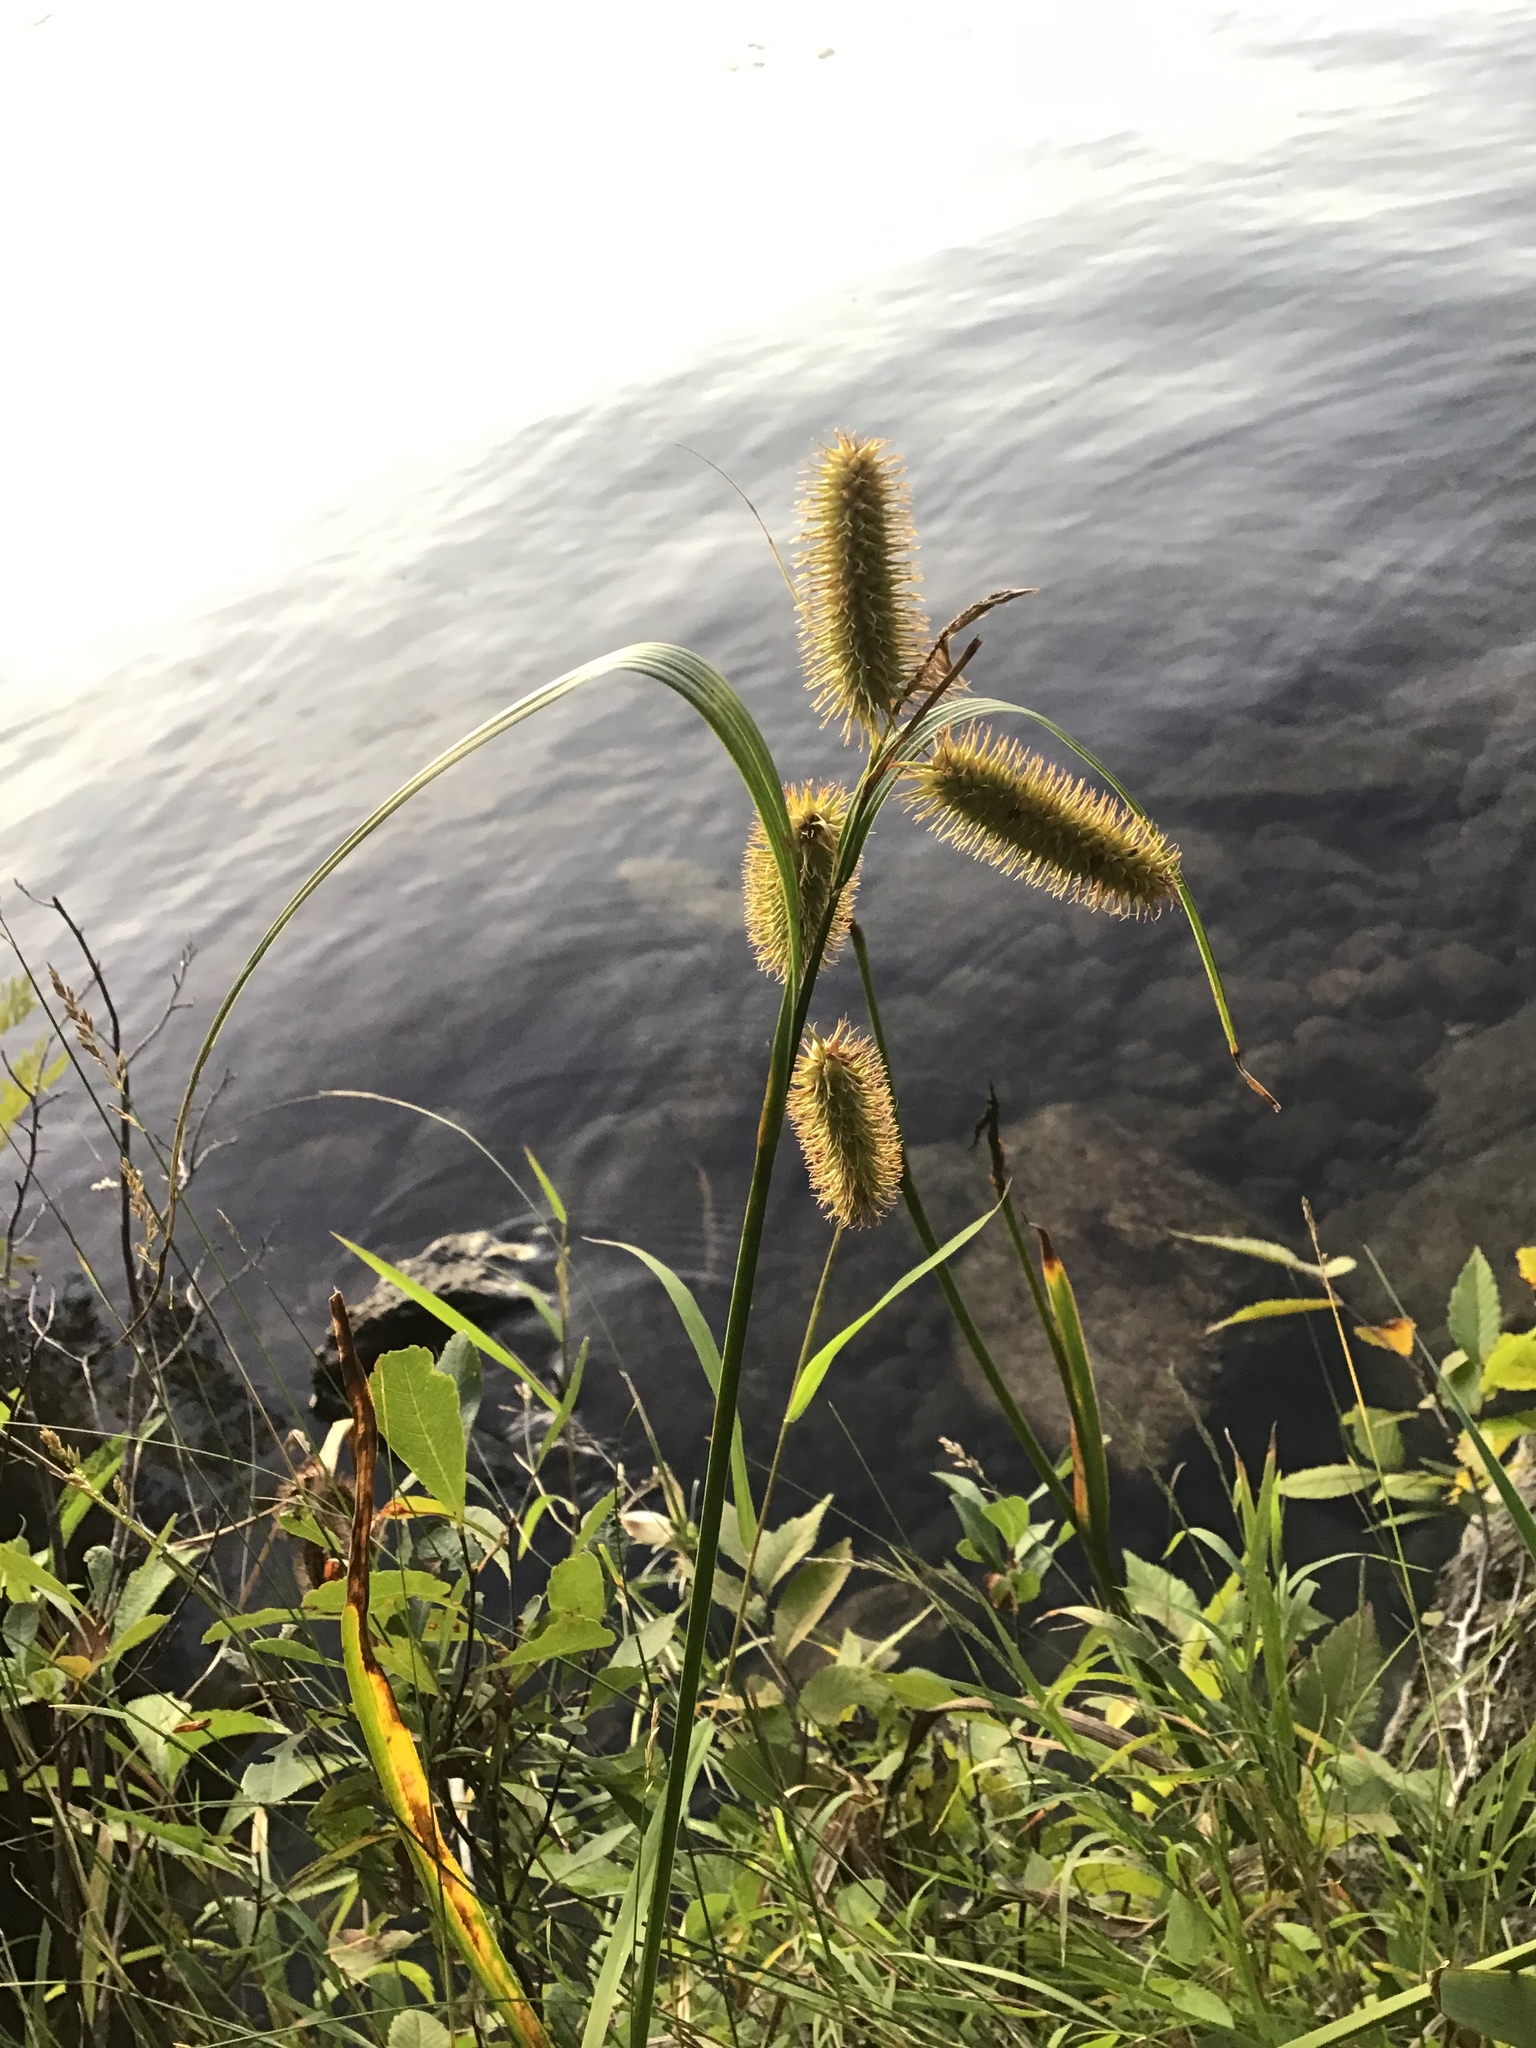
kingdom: Plantae
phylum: Tracheophyta
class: Liliopsida
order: Poales
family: Cyperaceae
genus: Carex
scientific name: Carex comosa
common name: Bristly sedge
